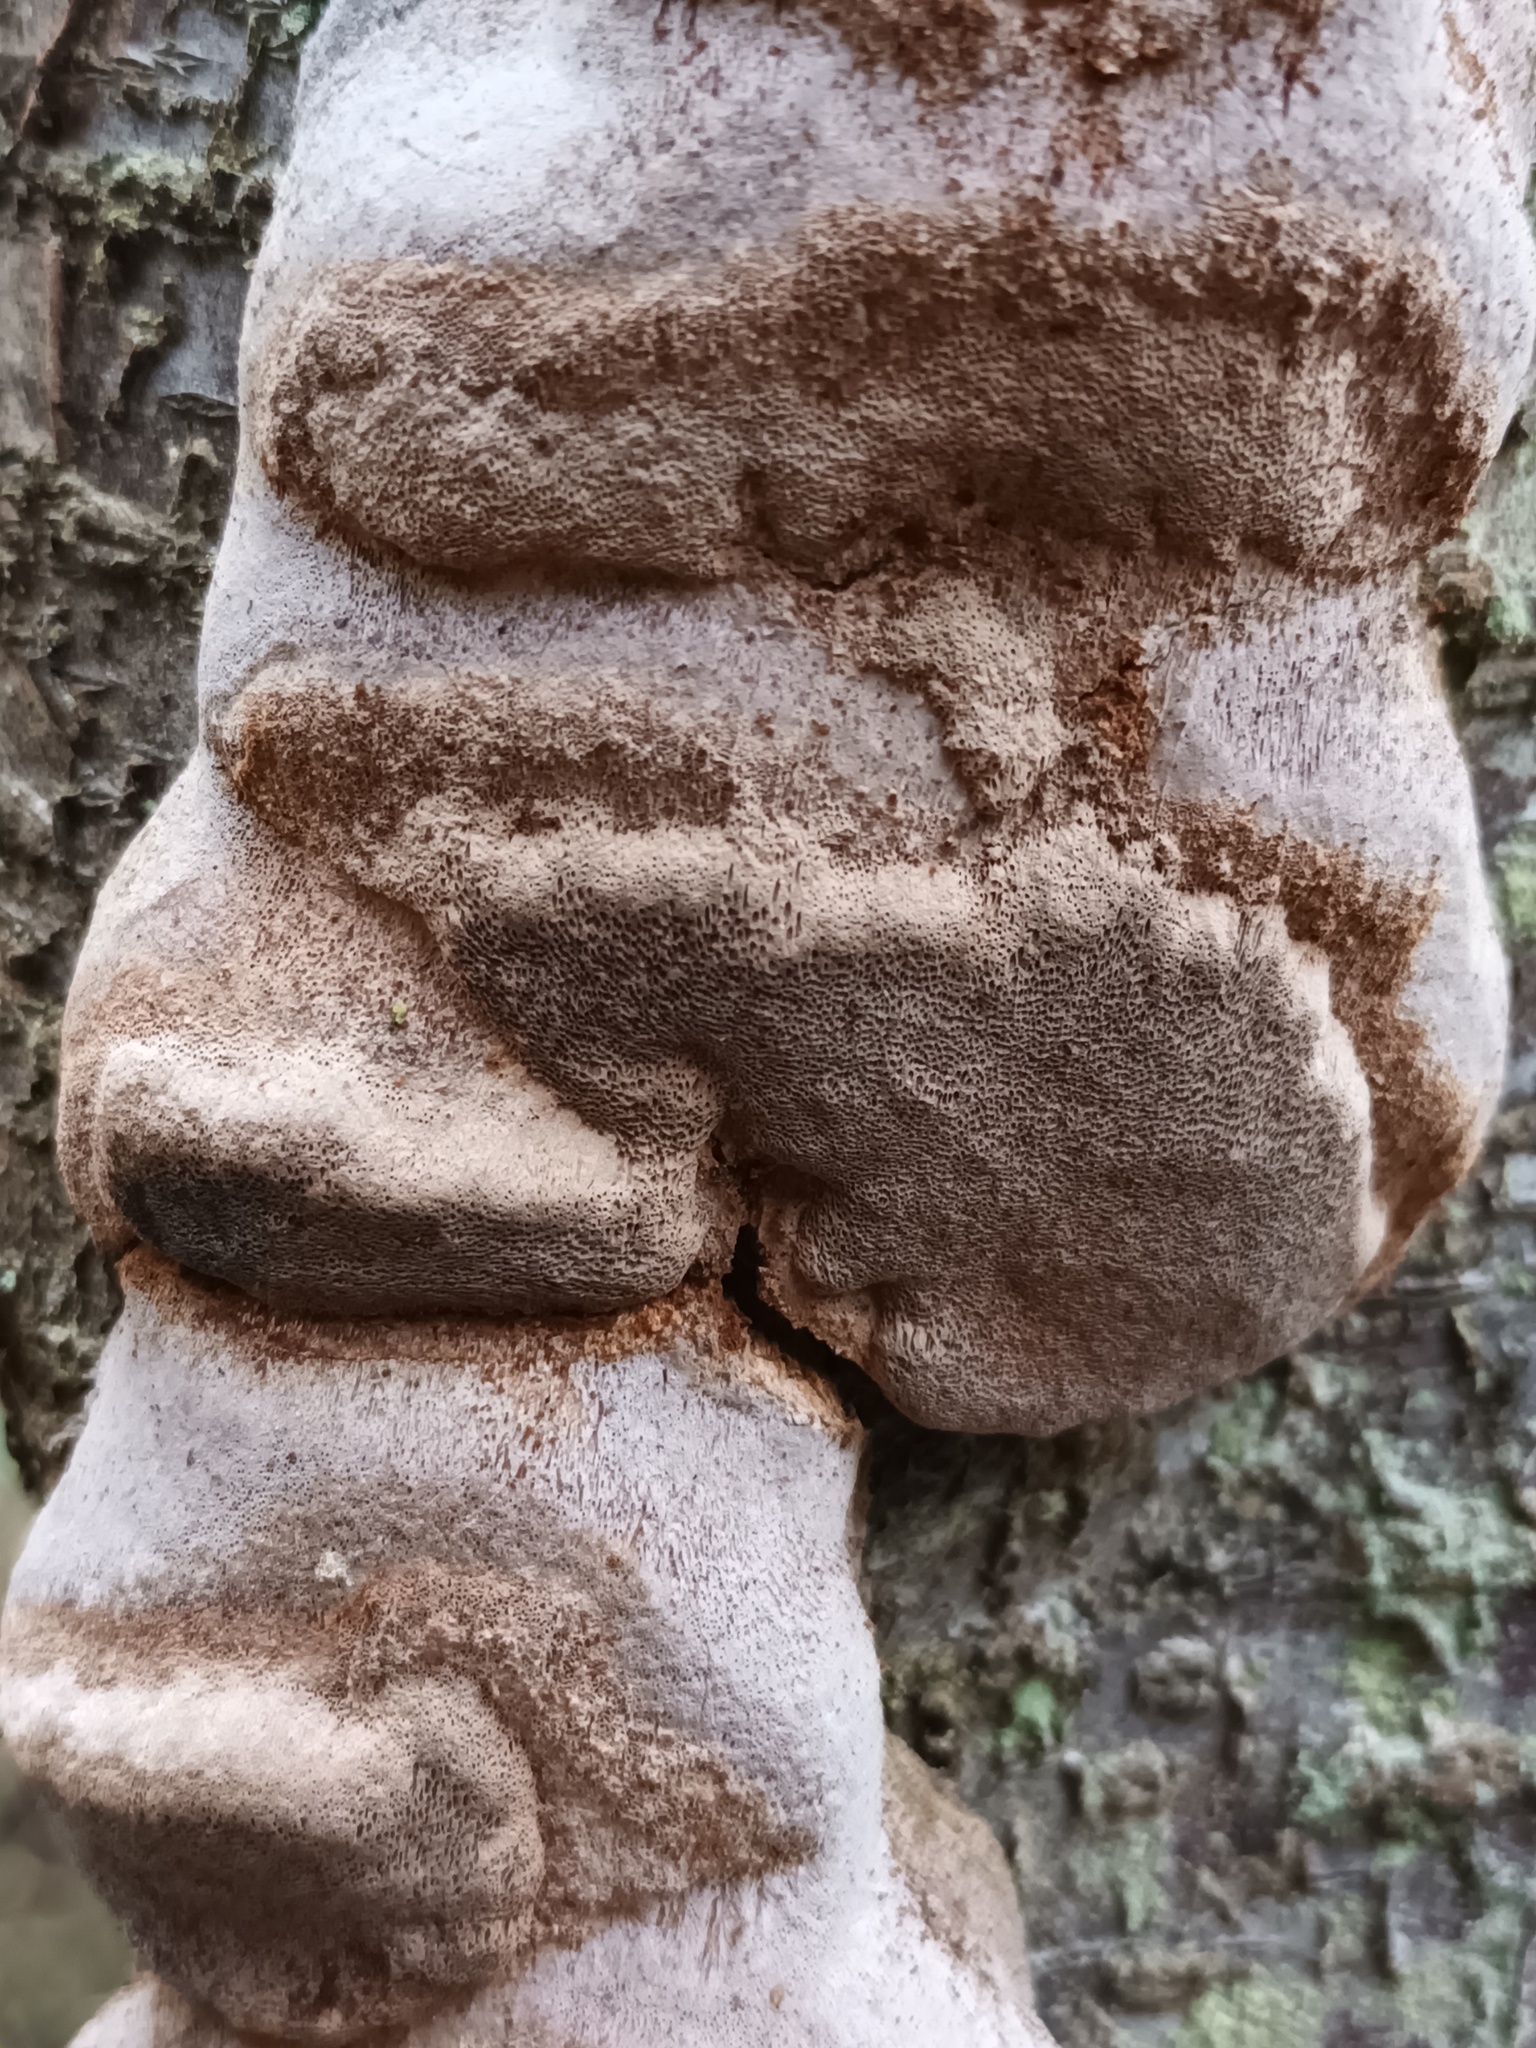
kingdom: Fungi
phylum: Basidiomycota
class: Agaricomycetes
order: Hymenochaetales
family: Hymenochaetaceae
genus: Phellinus
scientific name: Phellinus pomaceus
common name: Cushion bracket
